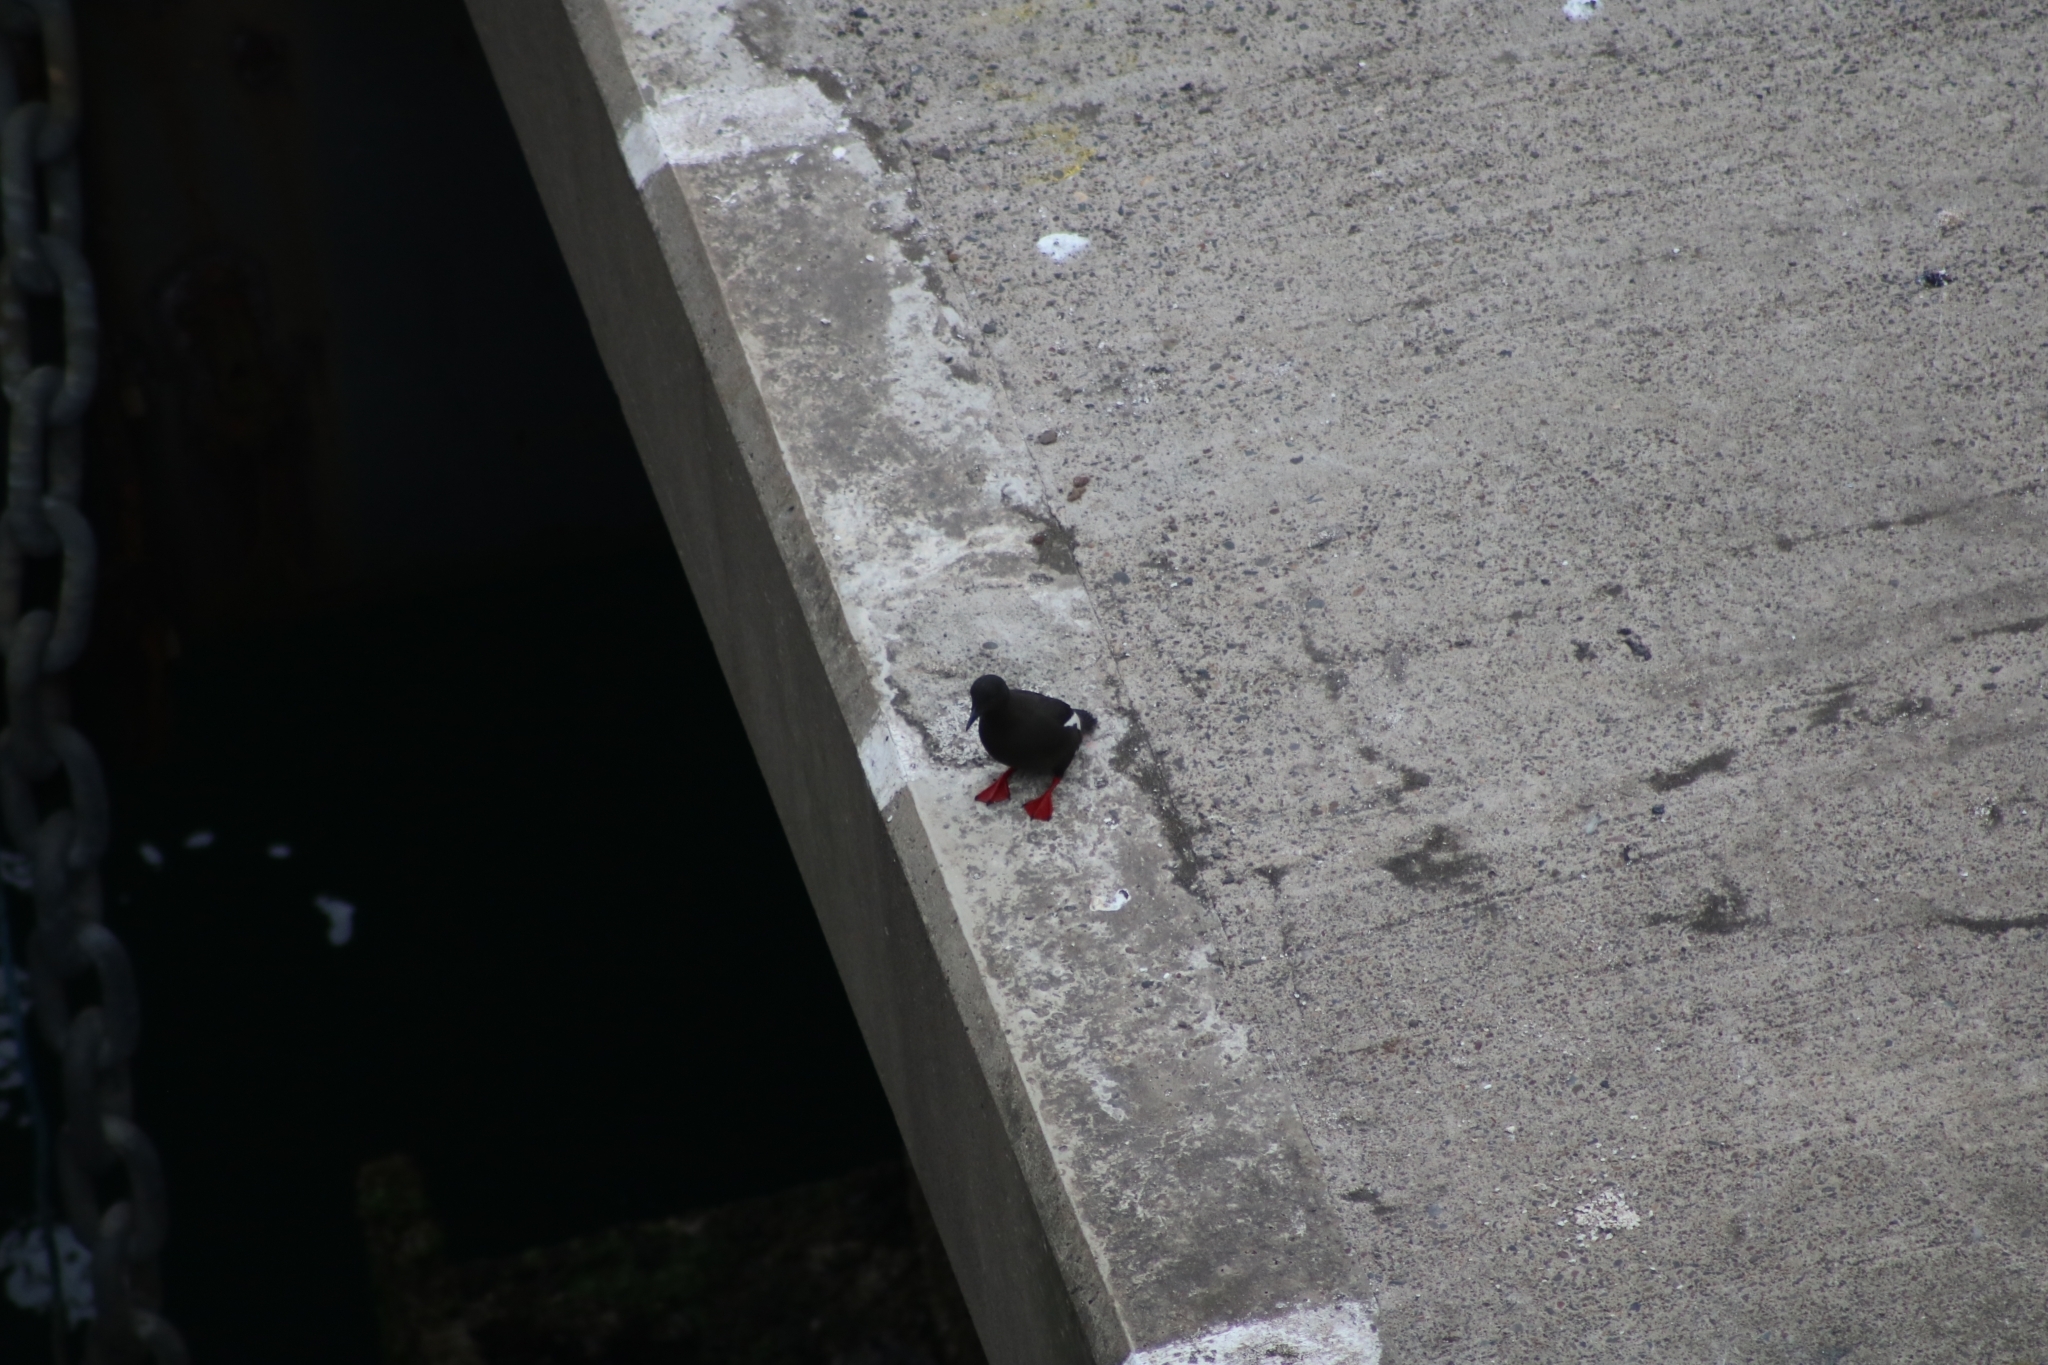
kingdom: Animalia
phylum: Chordata
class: Aves
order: Charadriiformes
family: Alcidae
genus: Cepphus
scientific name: Cepphus grylle
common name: Black guillemot
